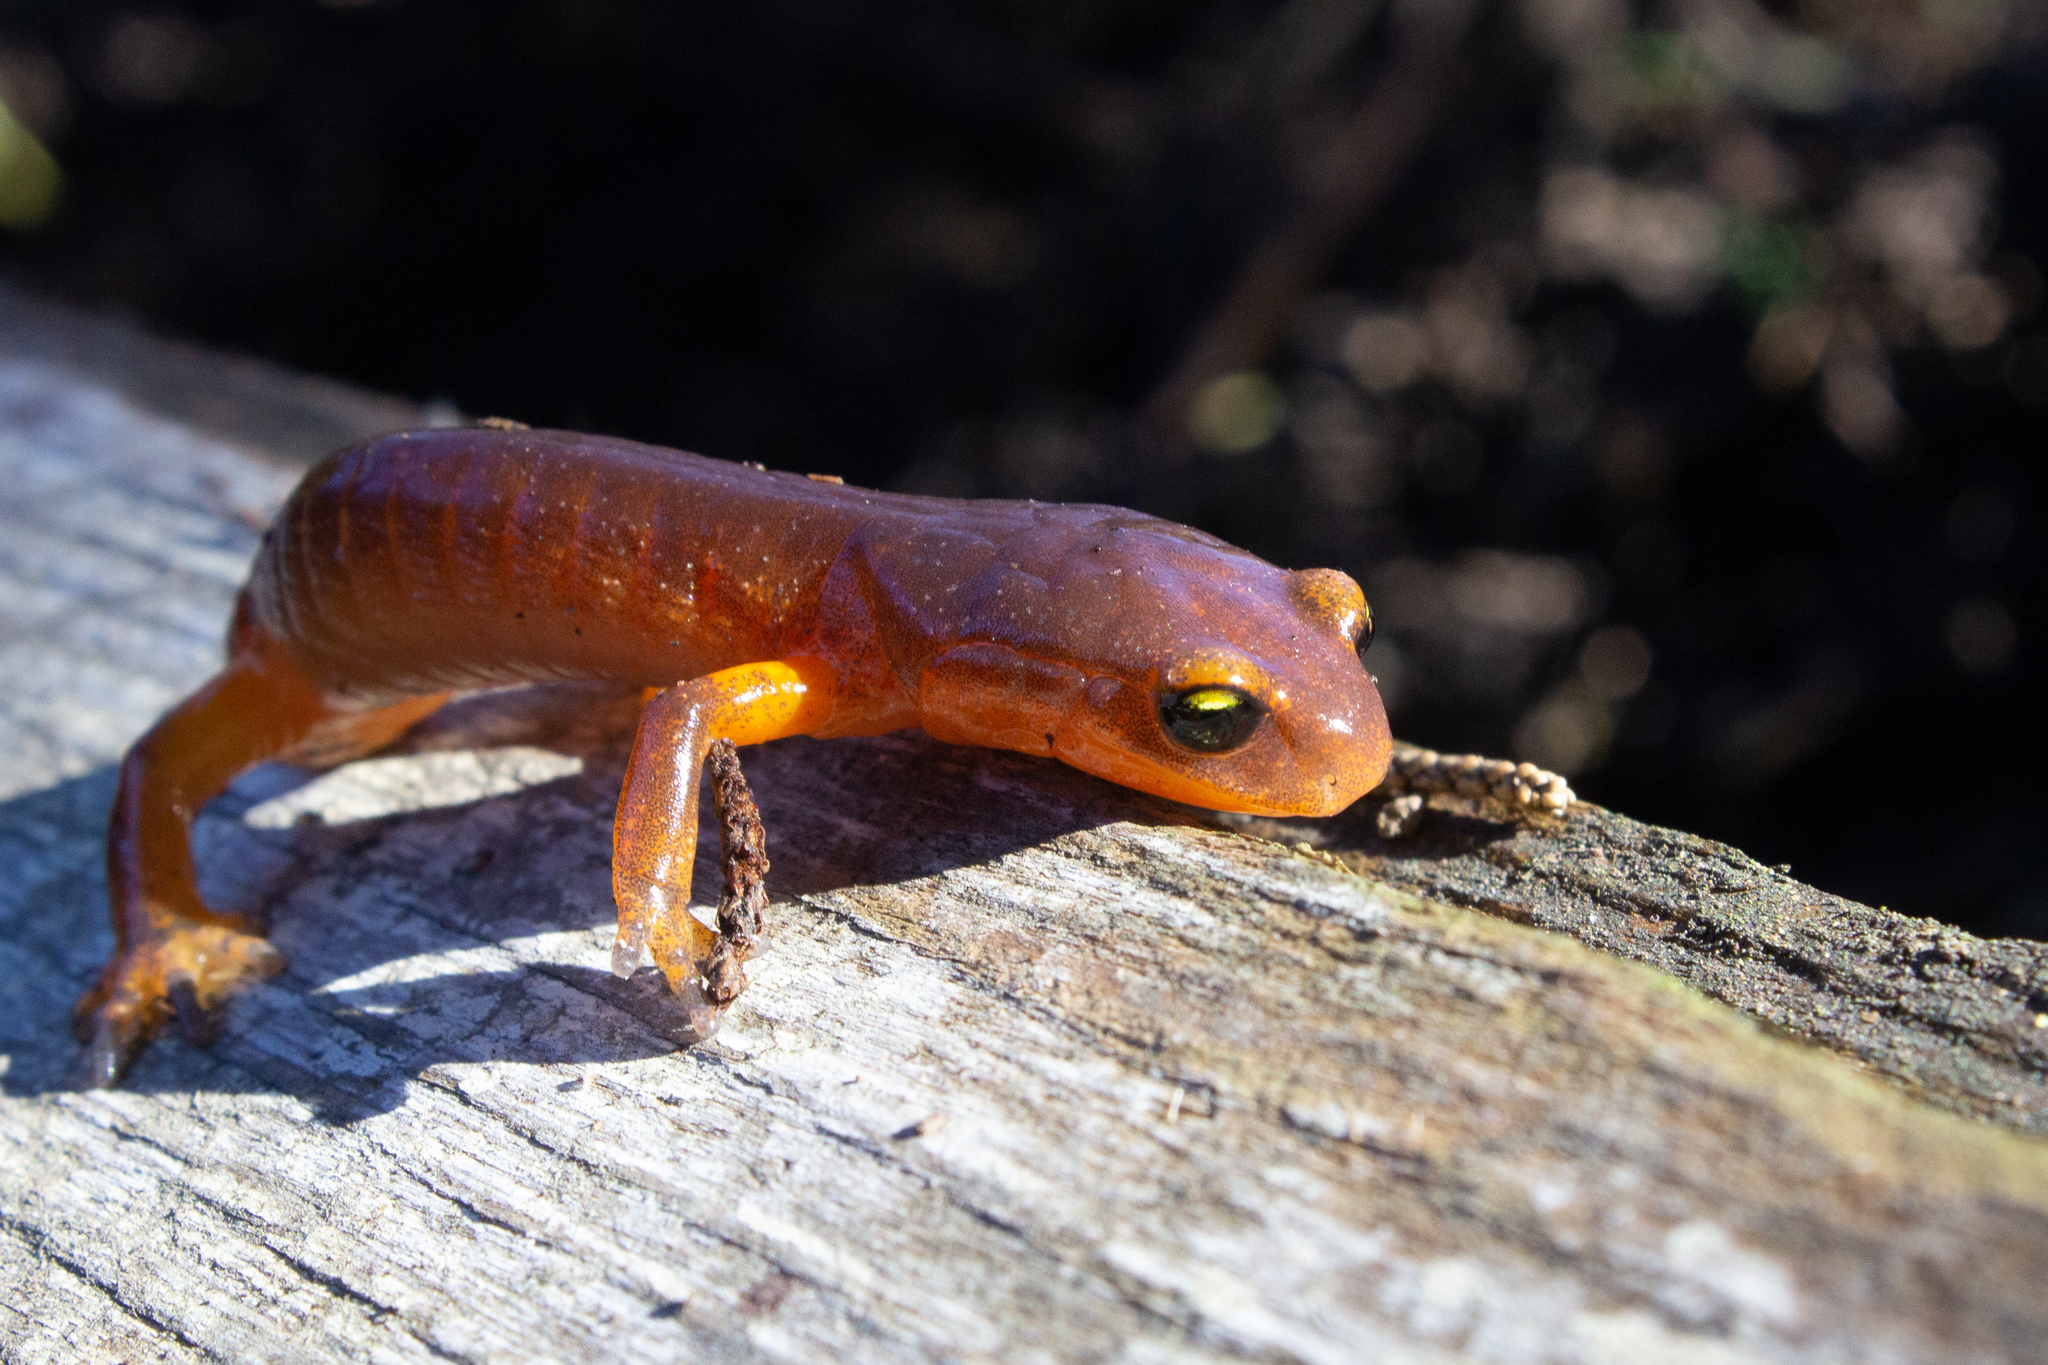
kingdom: Animalia
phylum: Chordata
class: Amphibia
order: Caudata
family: Plethodontidae
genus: Ensatina
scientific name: Ensatina eschscholtzii
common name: Ensatina
